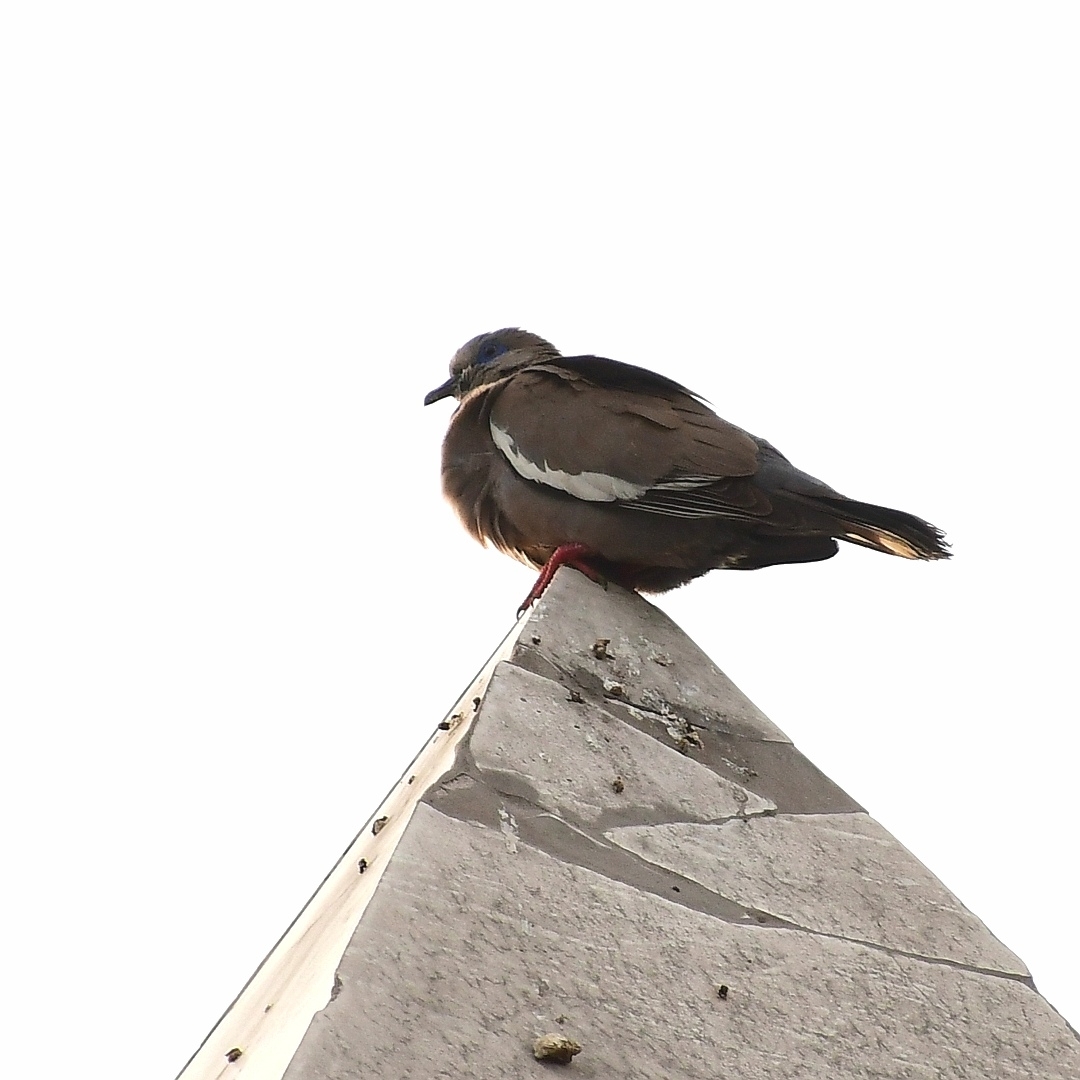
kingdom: Animalia
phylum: Chordata
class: Aves
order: Columbiformes
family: Columbidae
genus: Zenaida
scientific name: Zenaida meloda
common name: West peruvian dove
